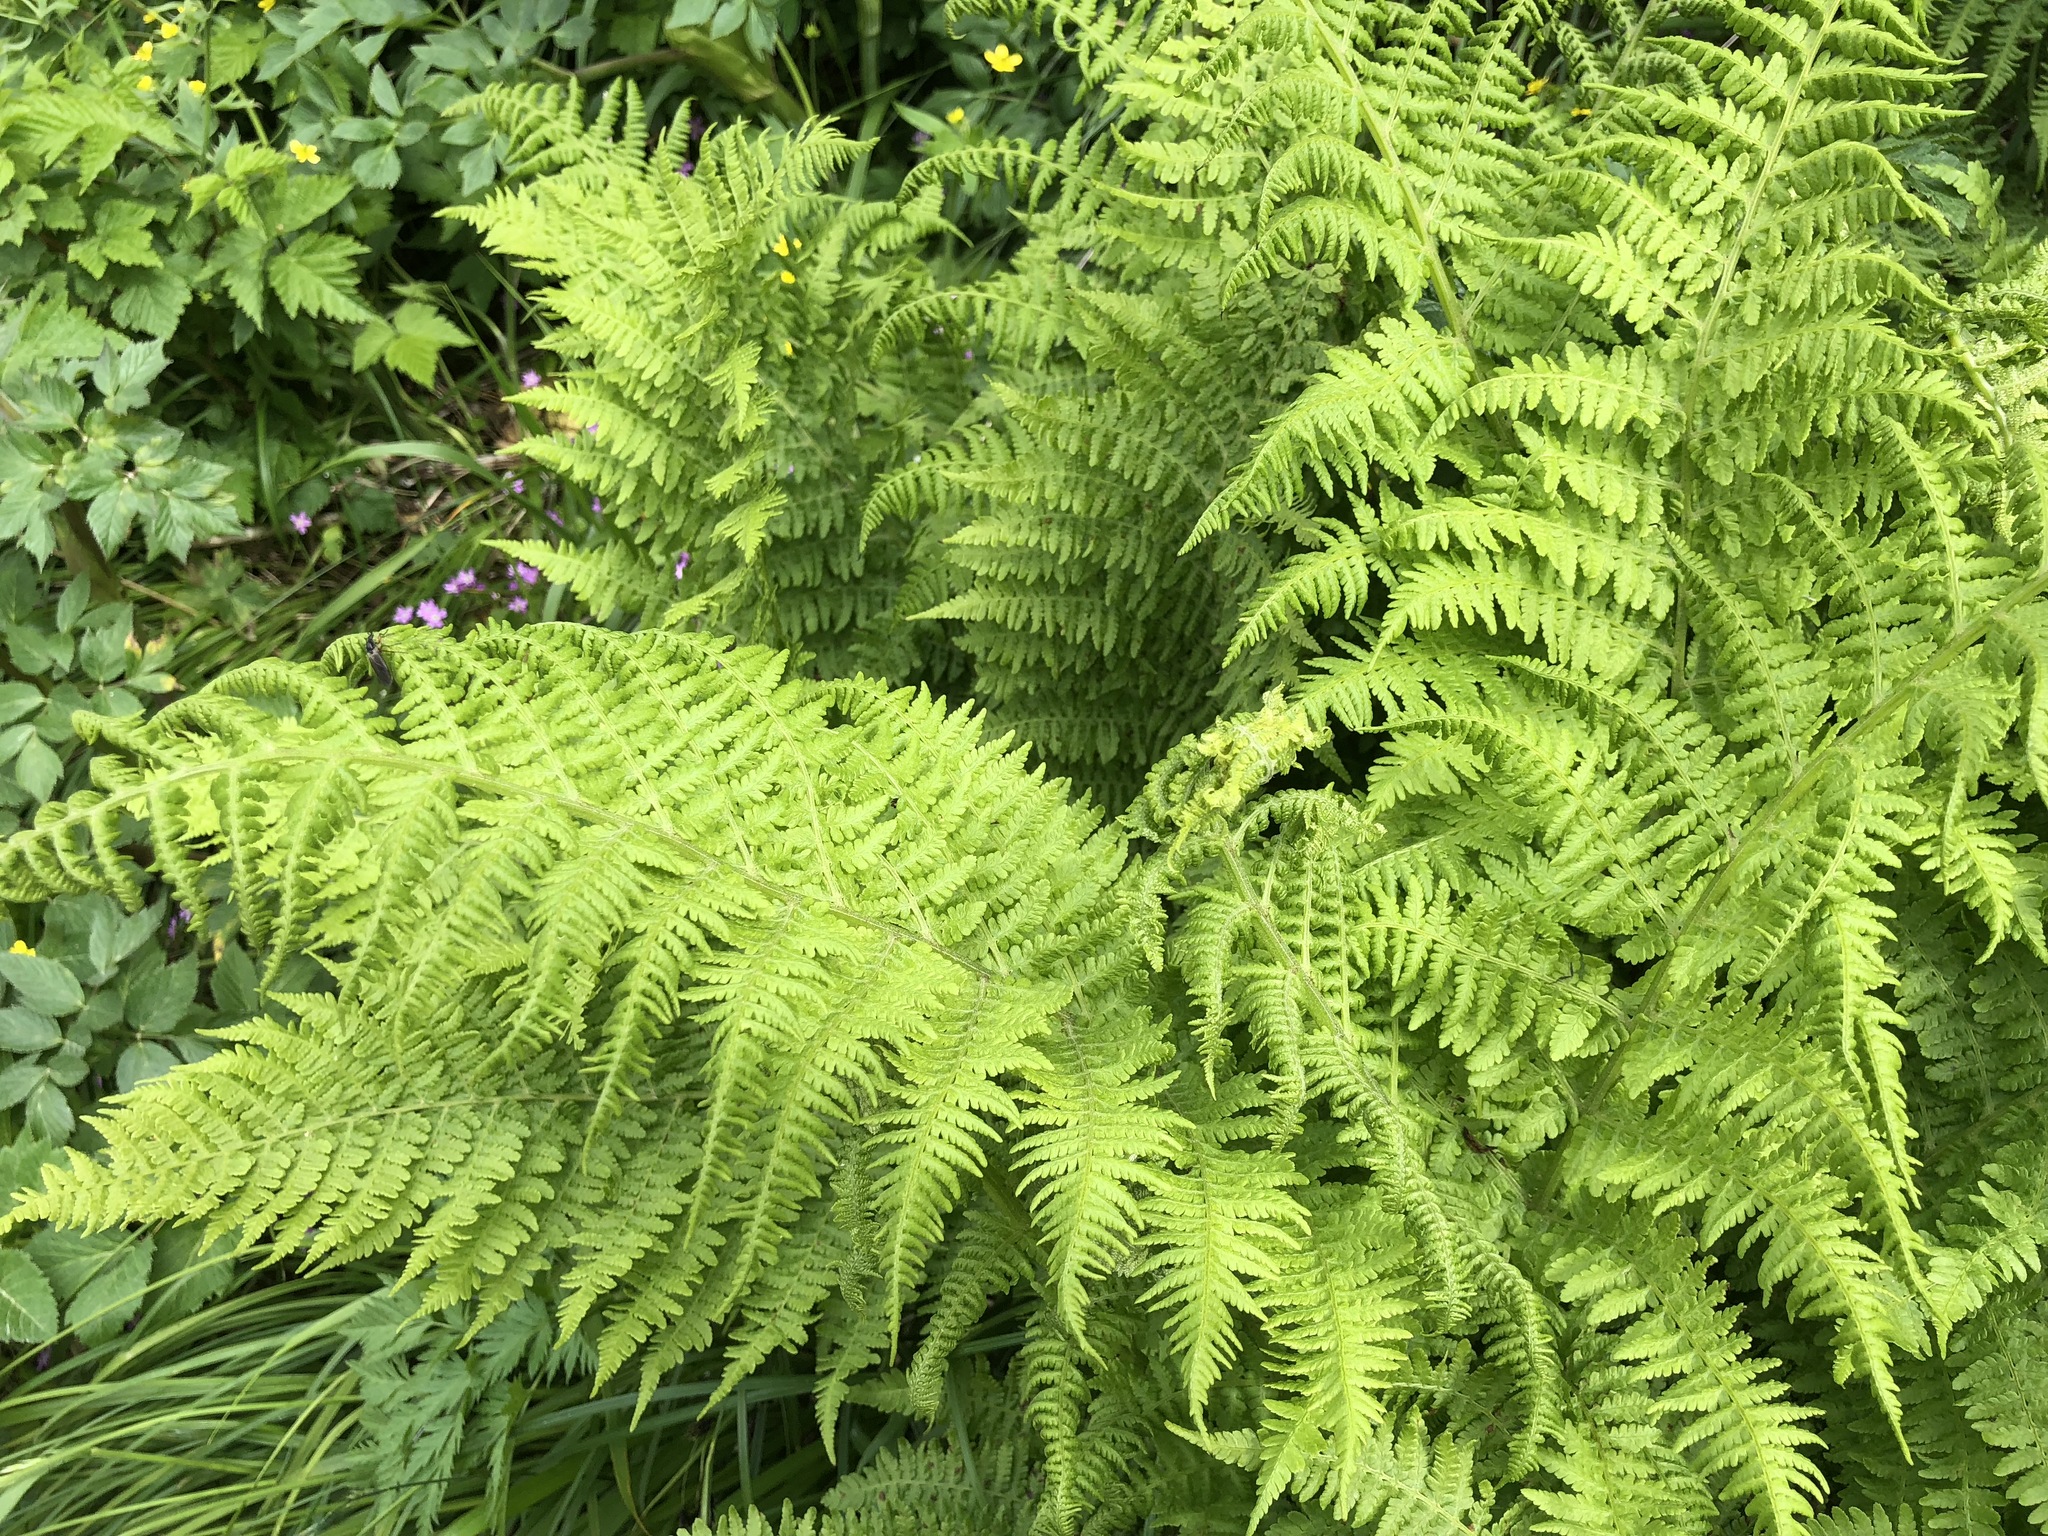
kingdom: Plantae
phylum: Tracheophyta
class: Polypodiopsida
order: Polypodiales
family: Athyriaceae
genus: Athyrium
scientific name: Athyrium filix-femina
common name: Lady fern
